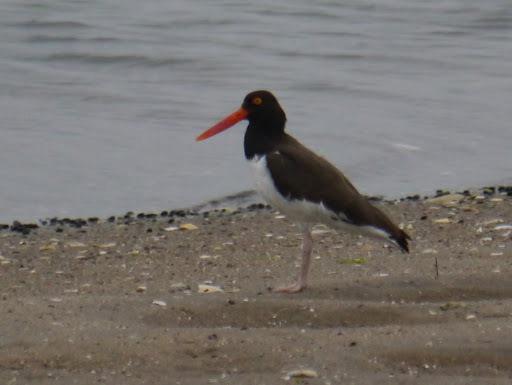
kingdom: Animalia
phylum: Chordata
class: Aves
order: Charadriiformes
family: Haematopodidae
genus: Haematopus
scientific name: Haematopus palliatus
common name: American oystercatcher
